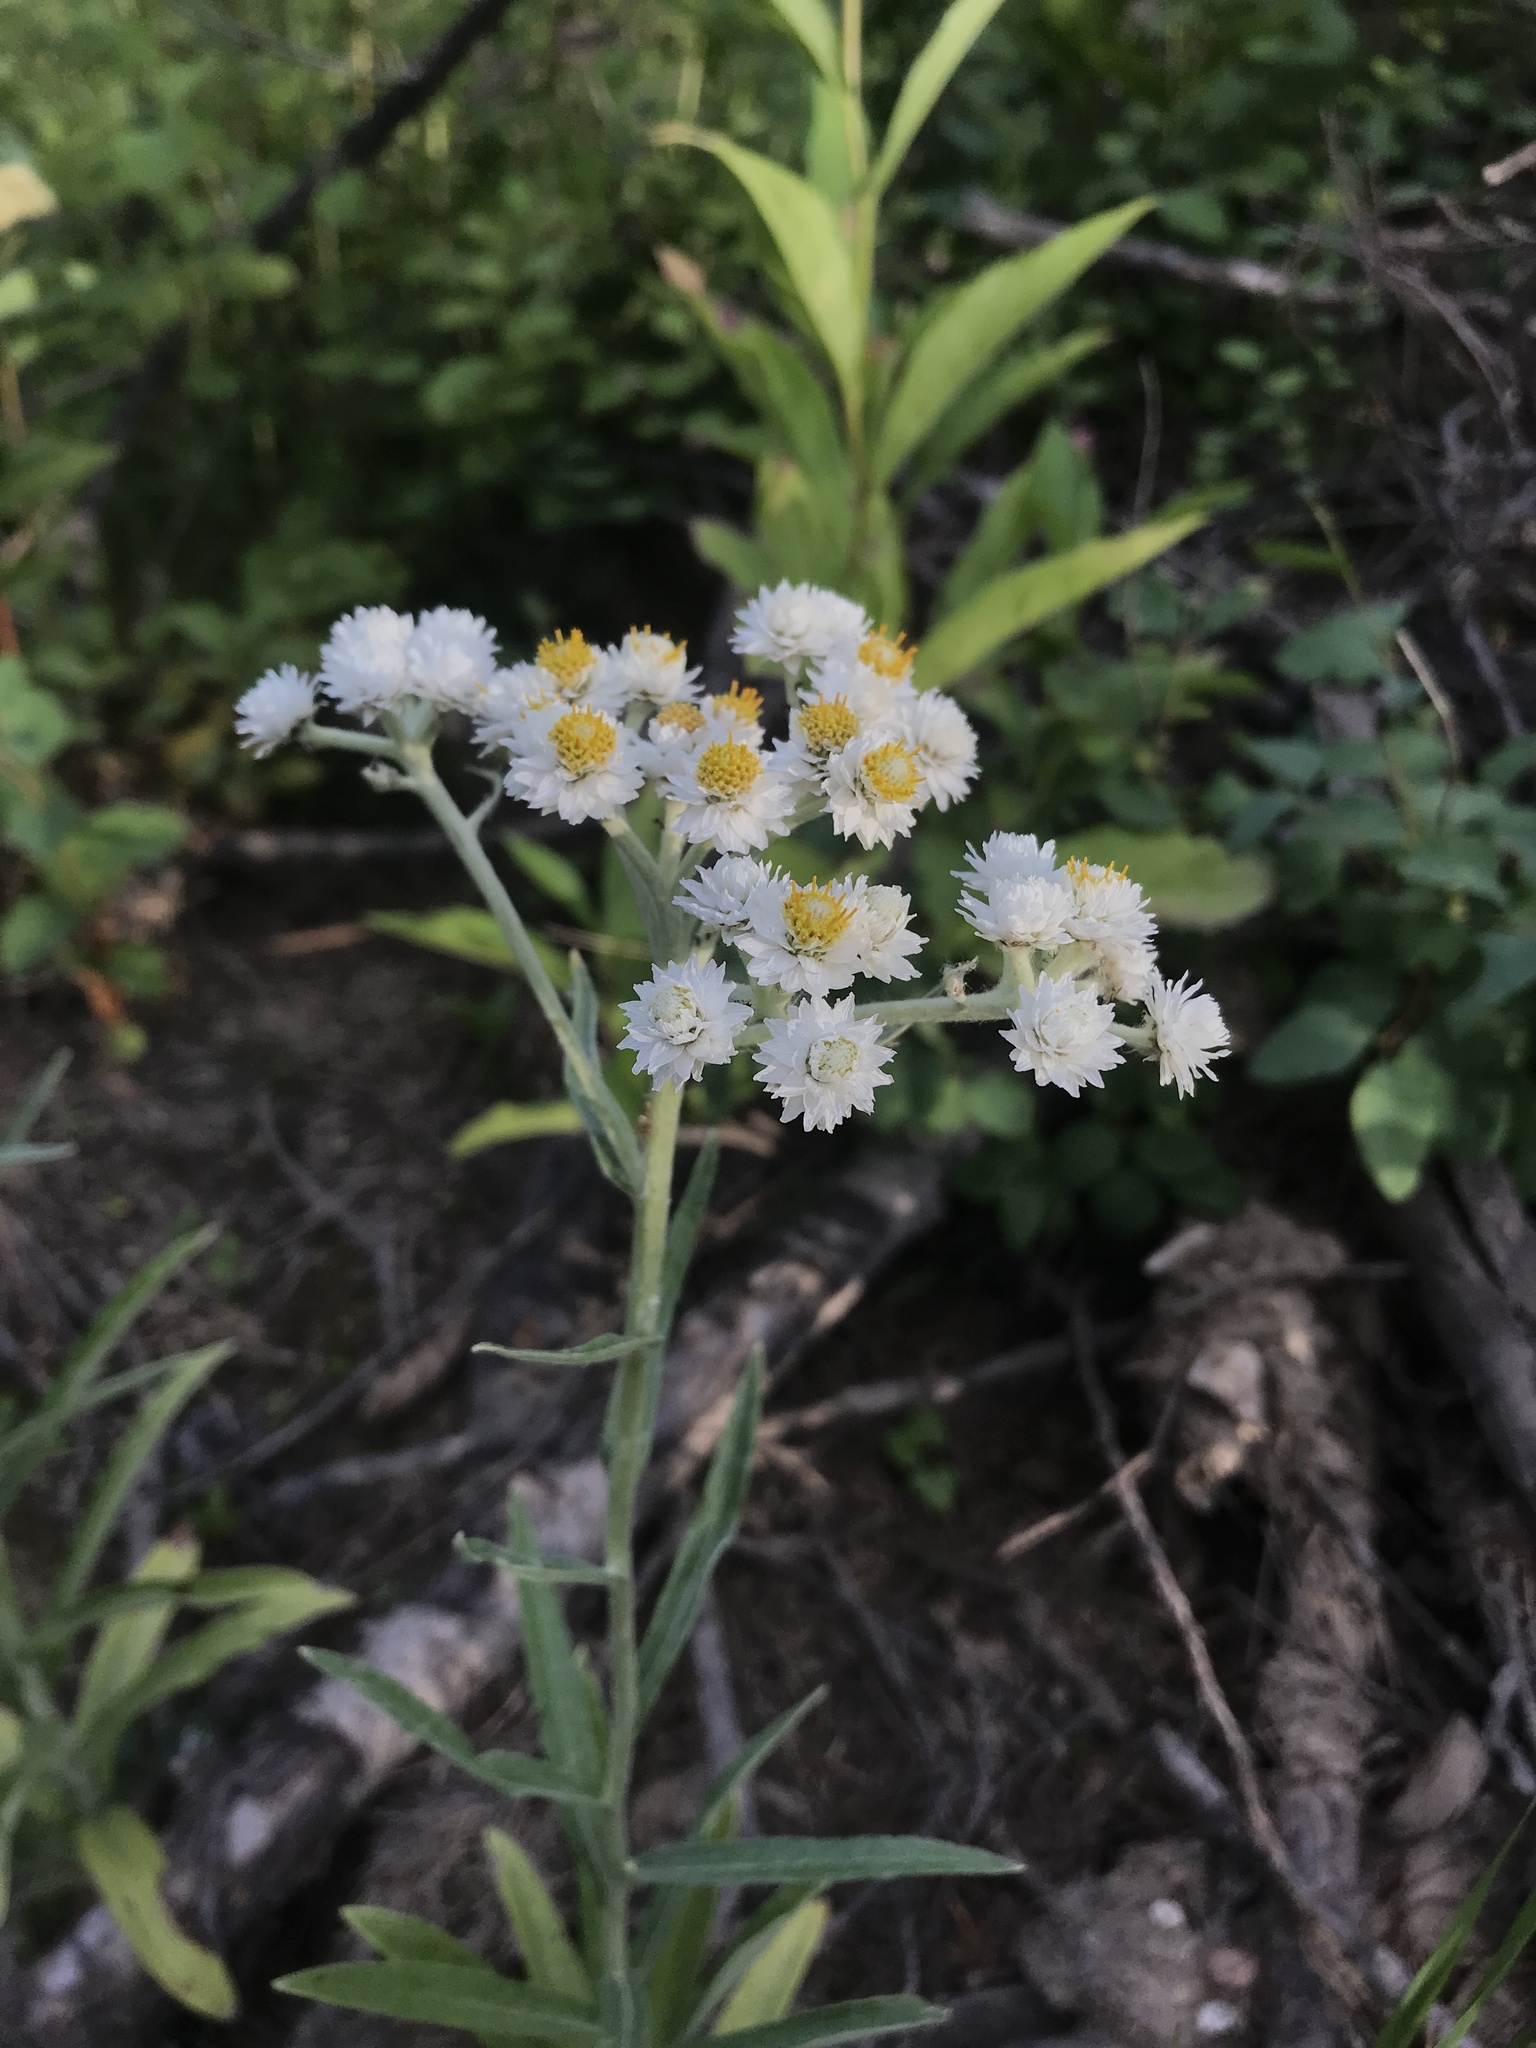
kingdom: Plantae
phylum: Tracheophyta
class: Magnoliopsida
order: Asterales
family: Asteraceae
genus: Anaphalis
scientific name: Anaphalis margaritacea
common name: Pearly everlasting
